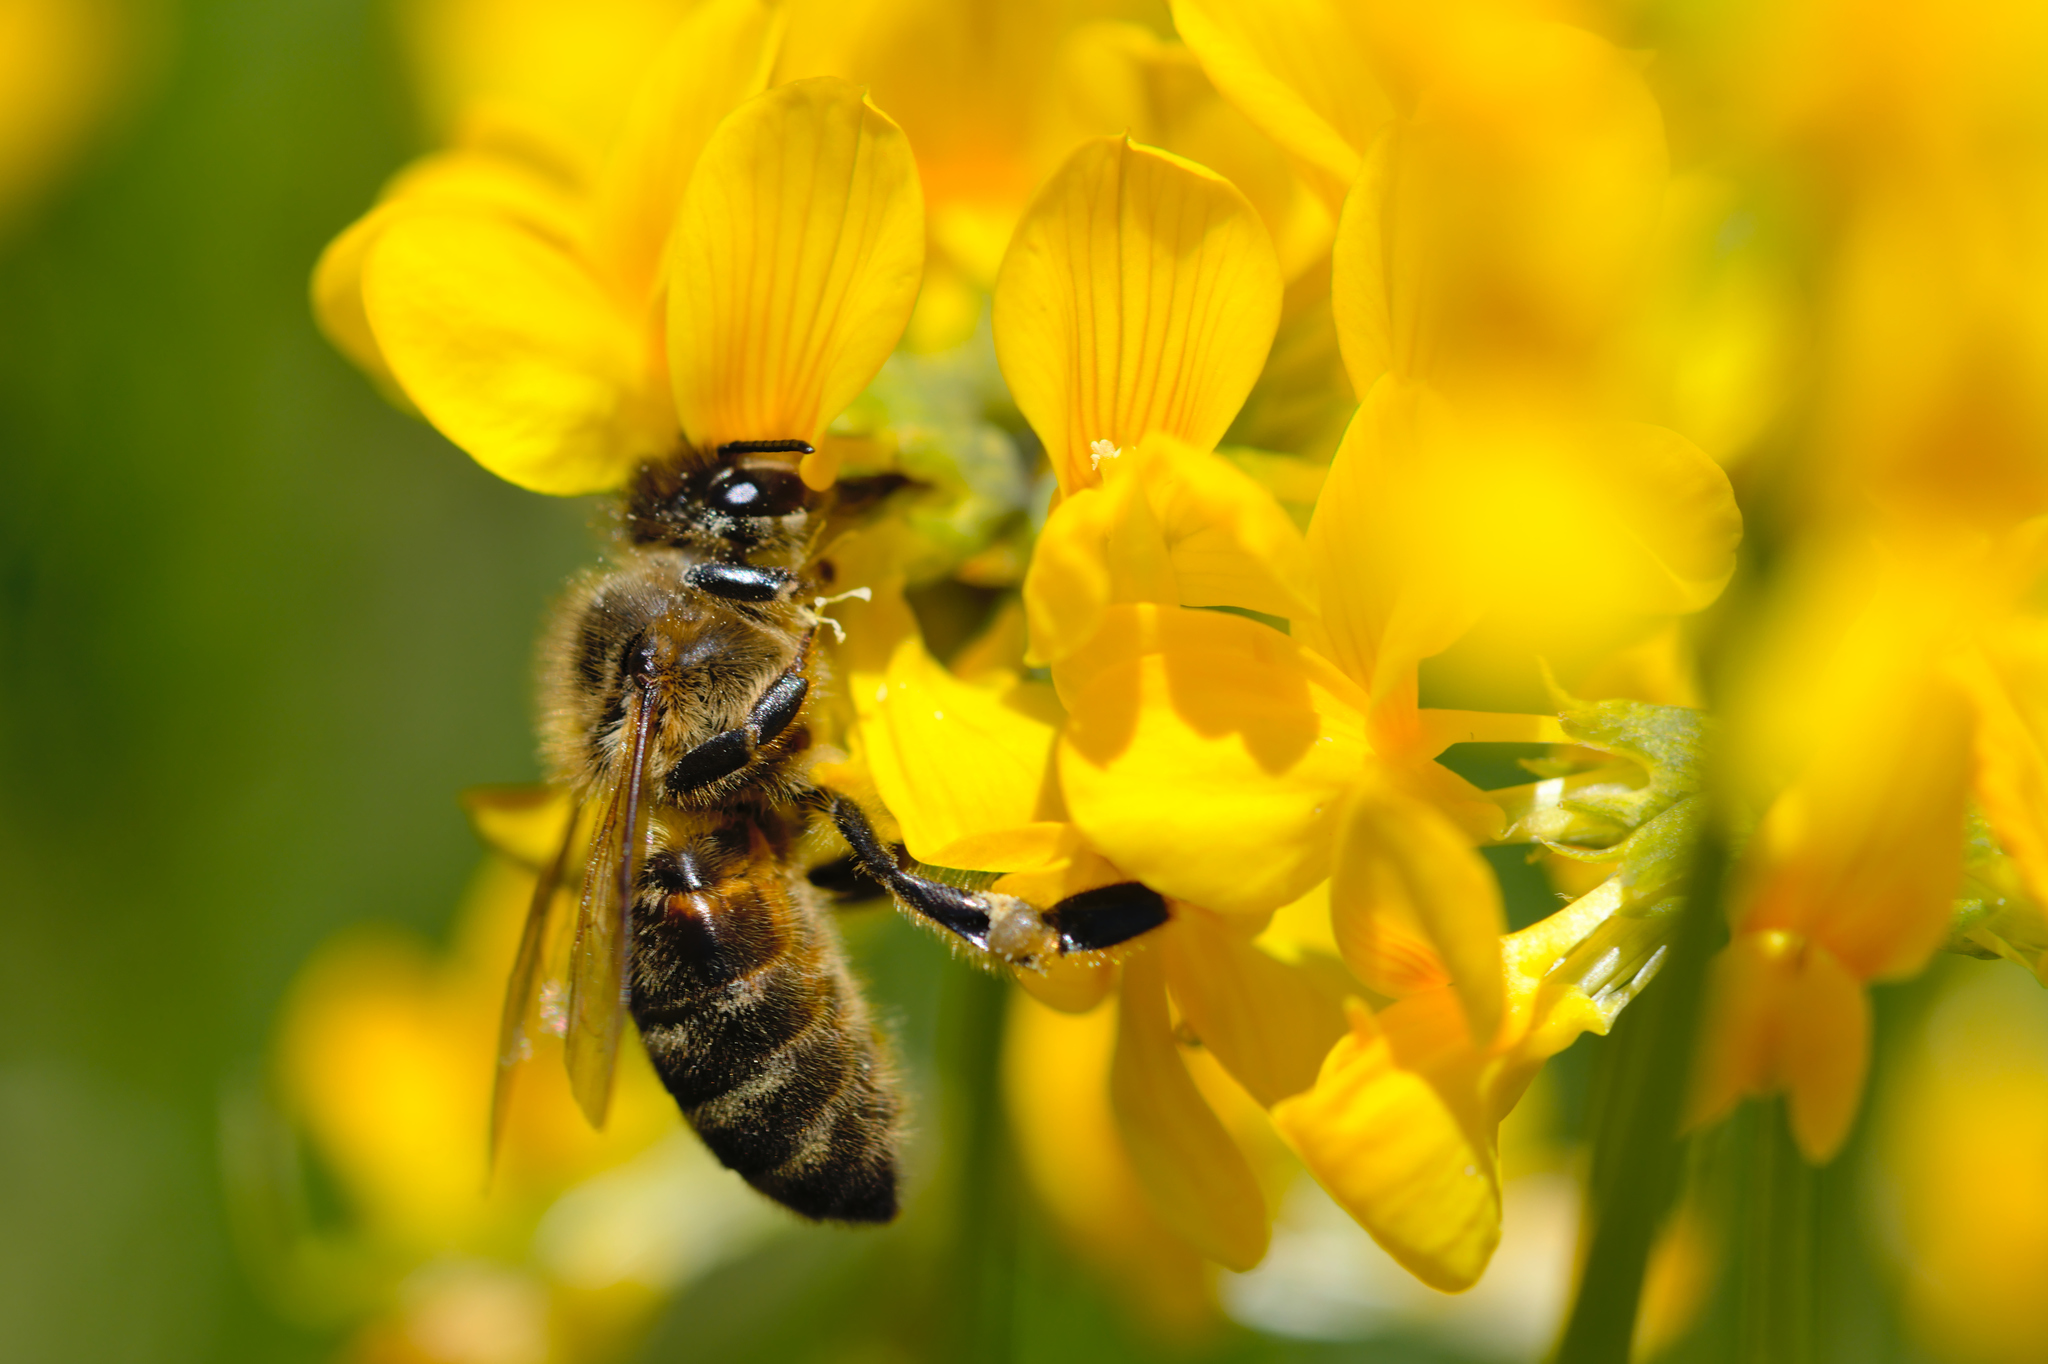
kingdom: Animalia
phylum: Arthropoda
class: Insecta
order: Hymenoptera
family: Apidae
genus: Apis
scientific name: Apis mellifera
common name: Honey bee
